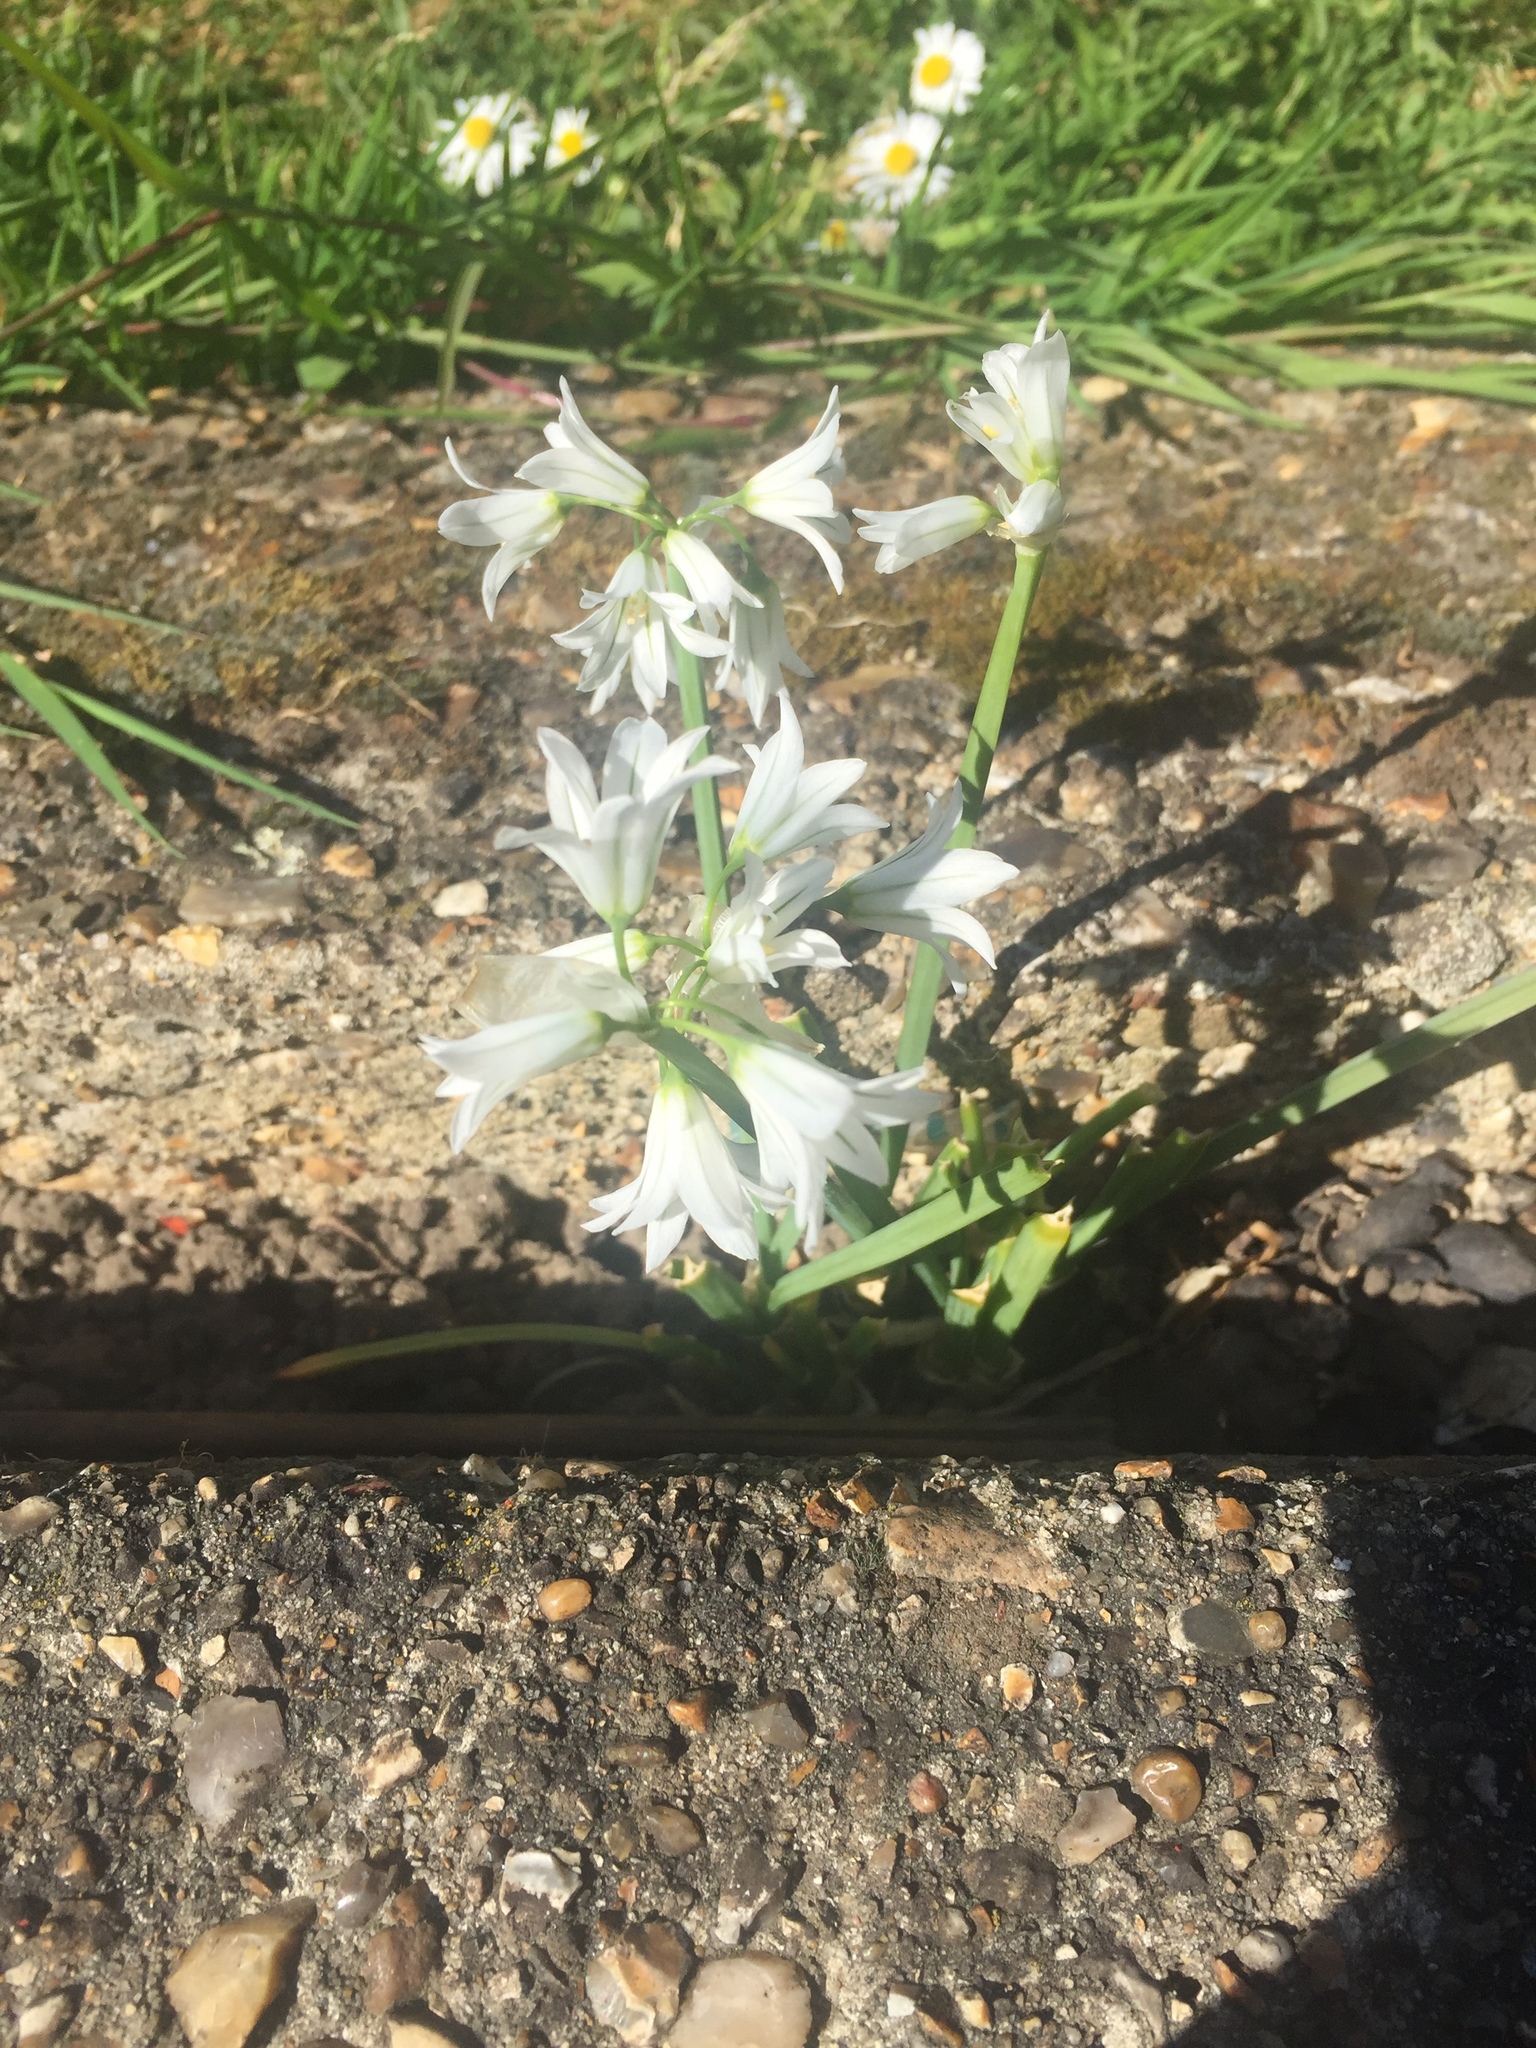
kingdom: Plantae
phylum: Tracheophyta
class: Liliopsida
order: Asparagales
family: Amaryllidaceae
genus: Allium
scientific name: Allium triquetrum
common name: Three-cornered garlic
